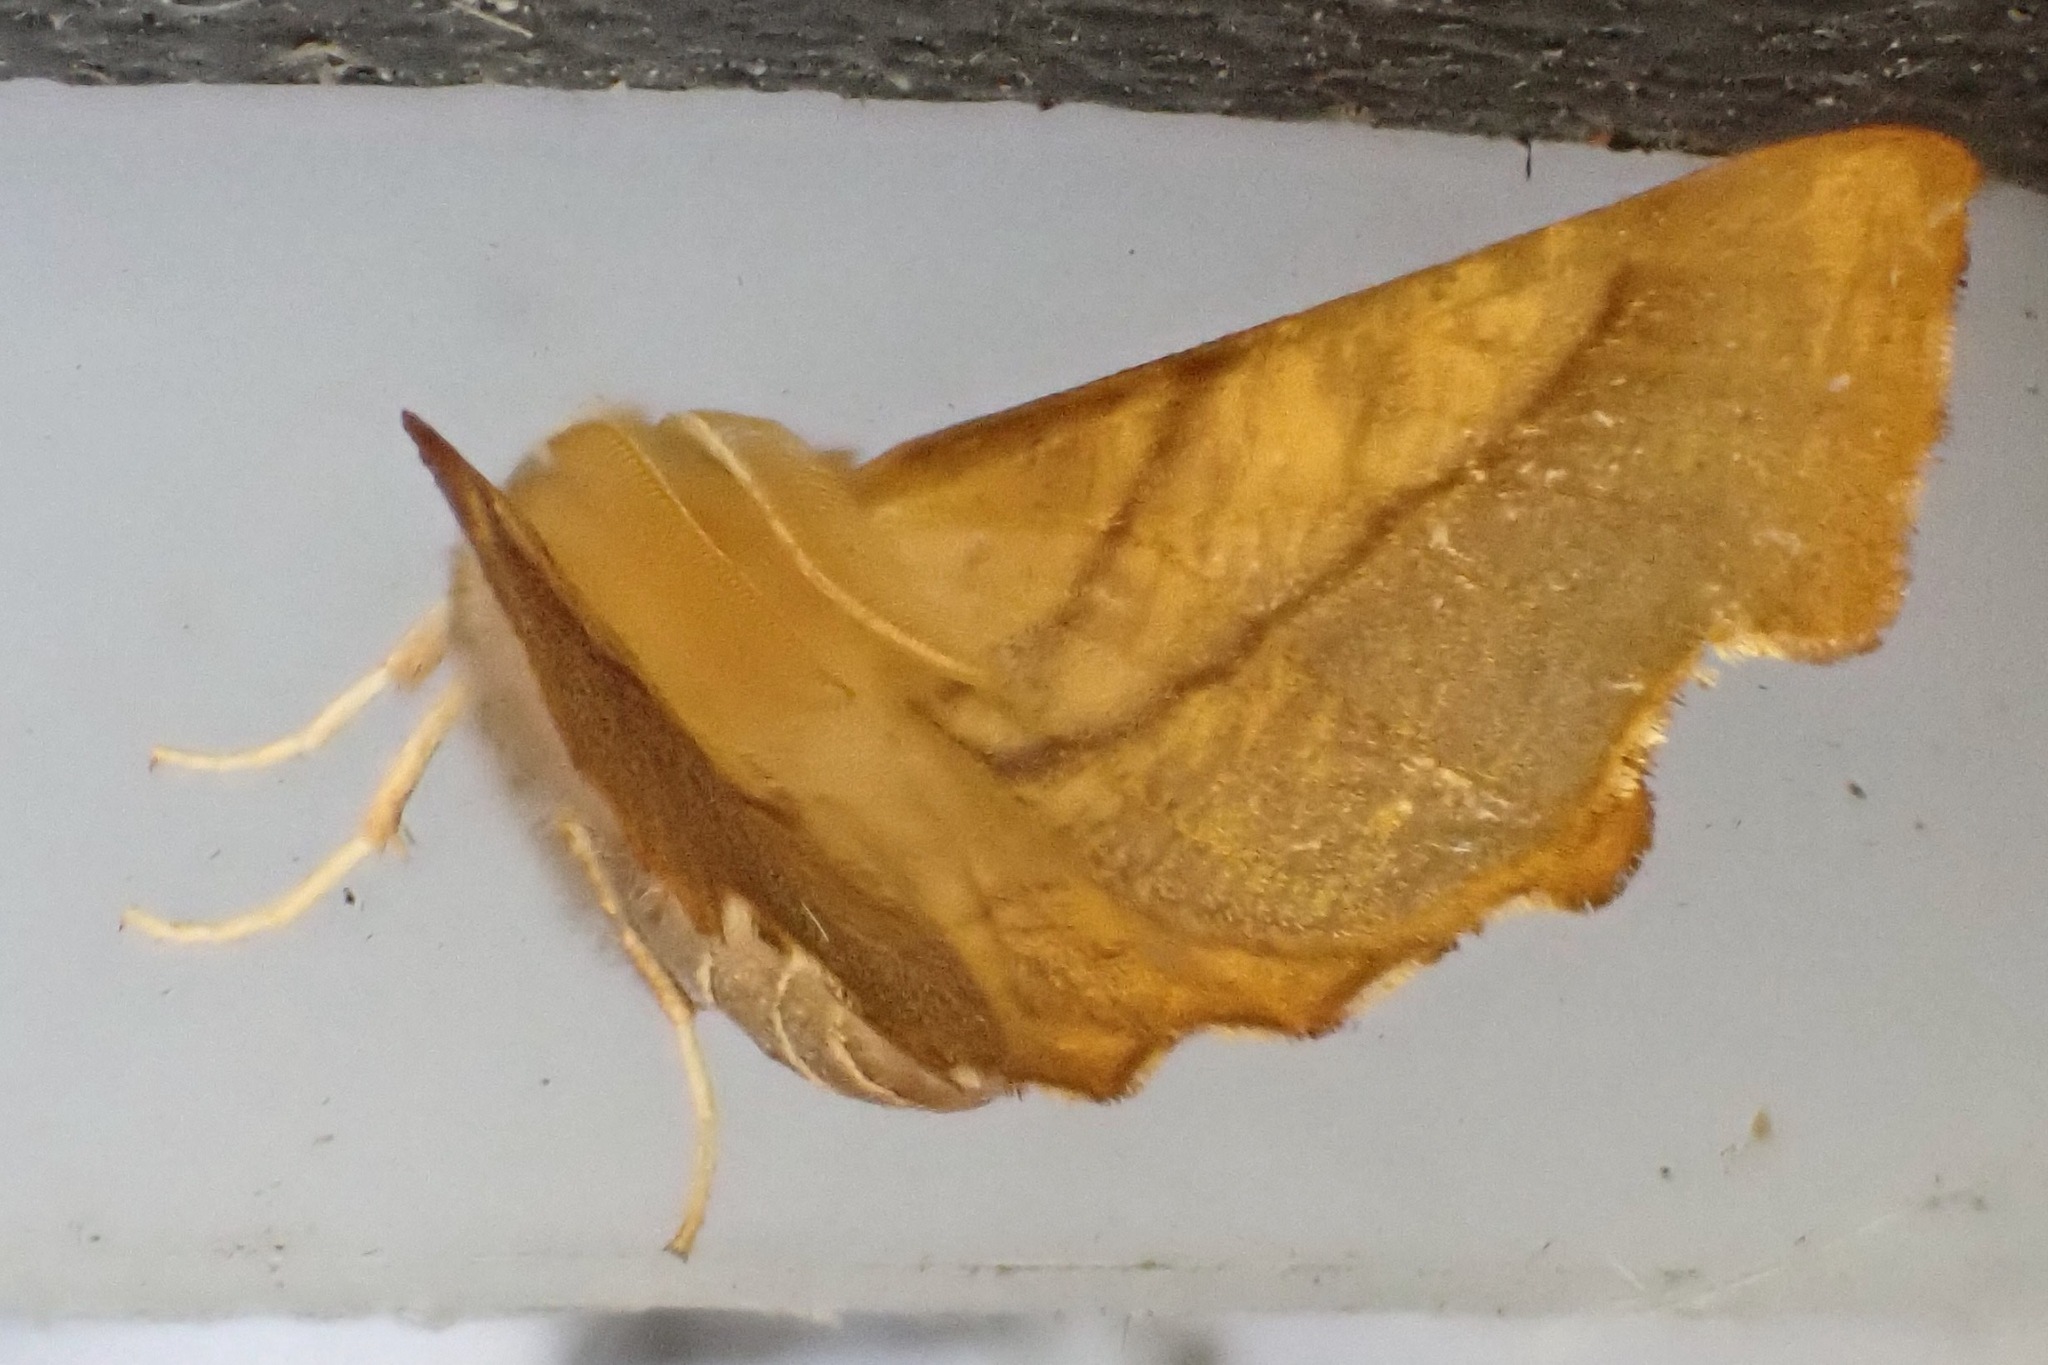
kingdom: Animalia
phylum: Arthropoda
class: Insecta
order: Lepidoptera
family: Geometridae
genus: Ennomos
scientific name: Ennomos fuscantaria
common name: Dusky thorn
